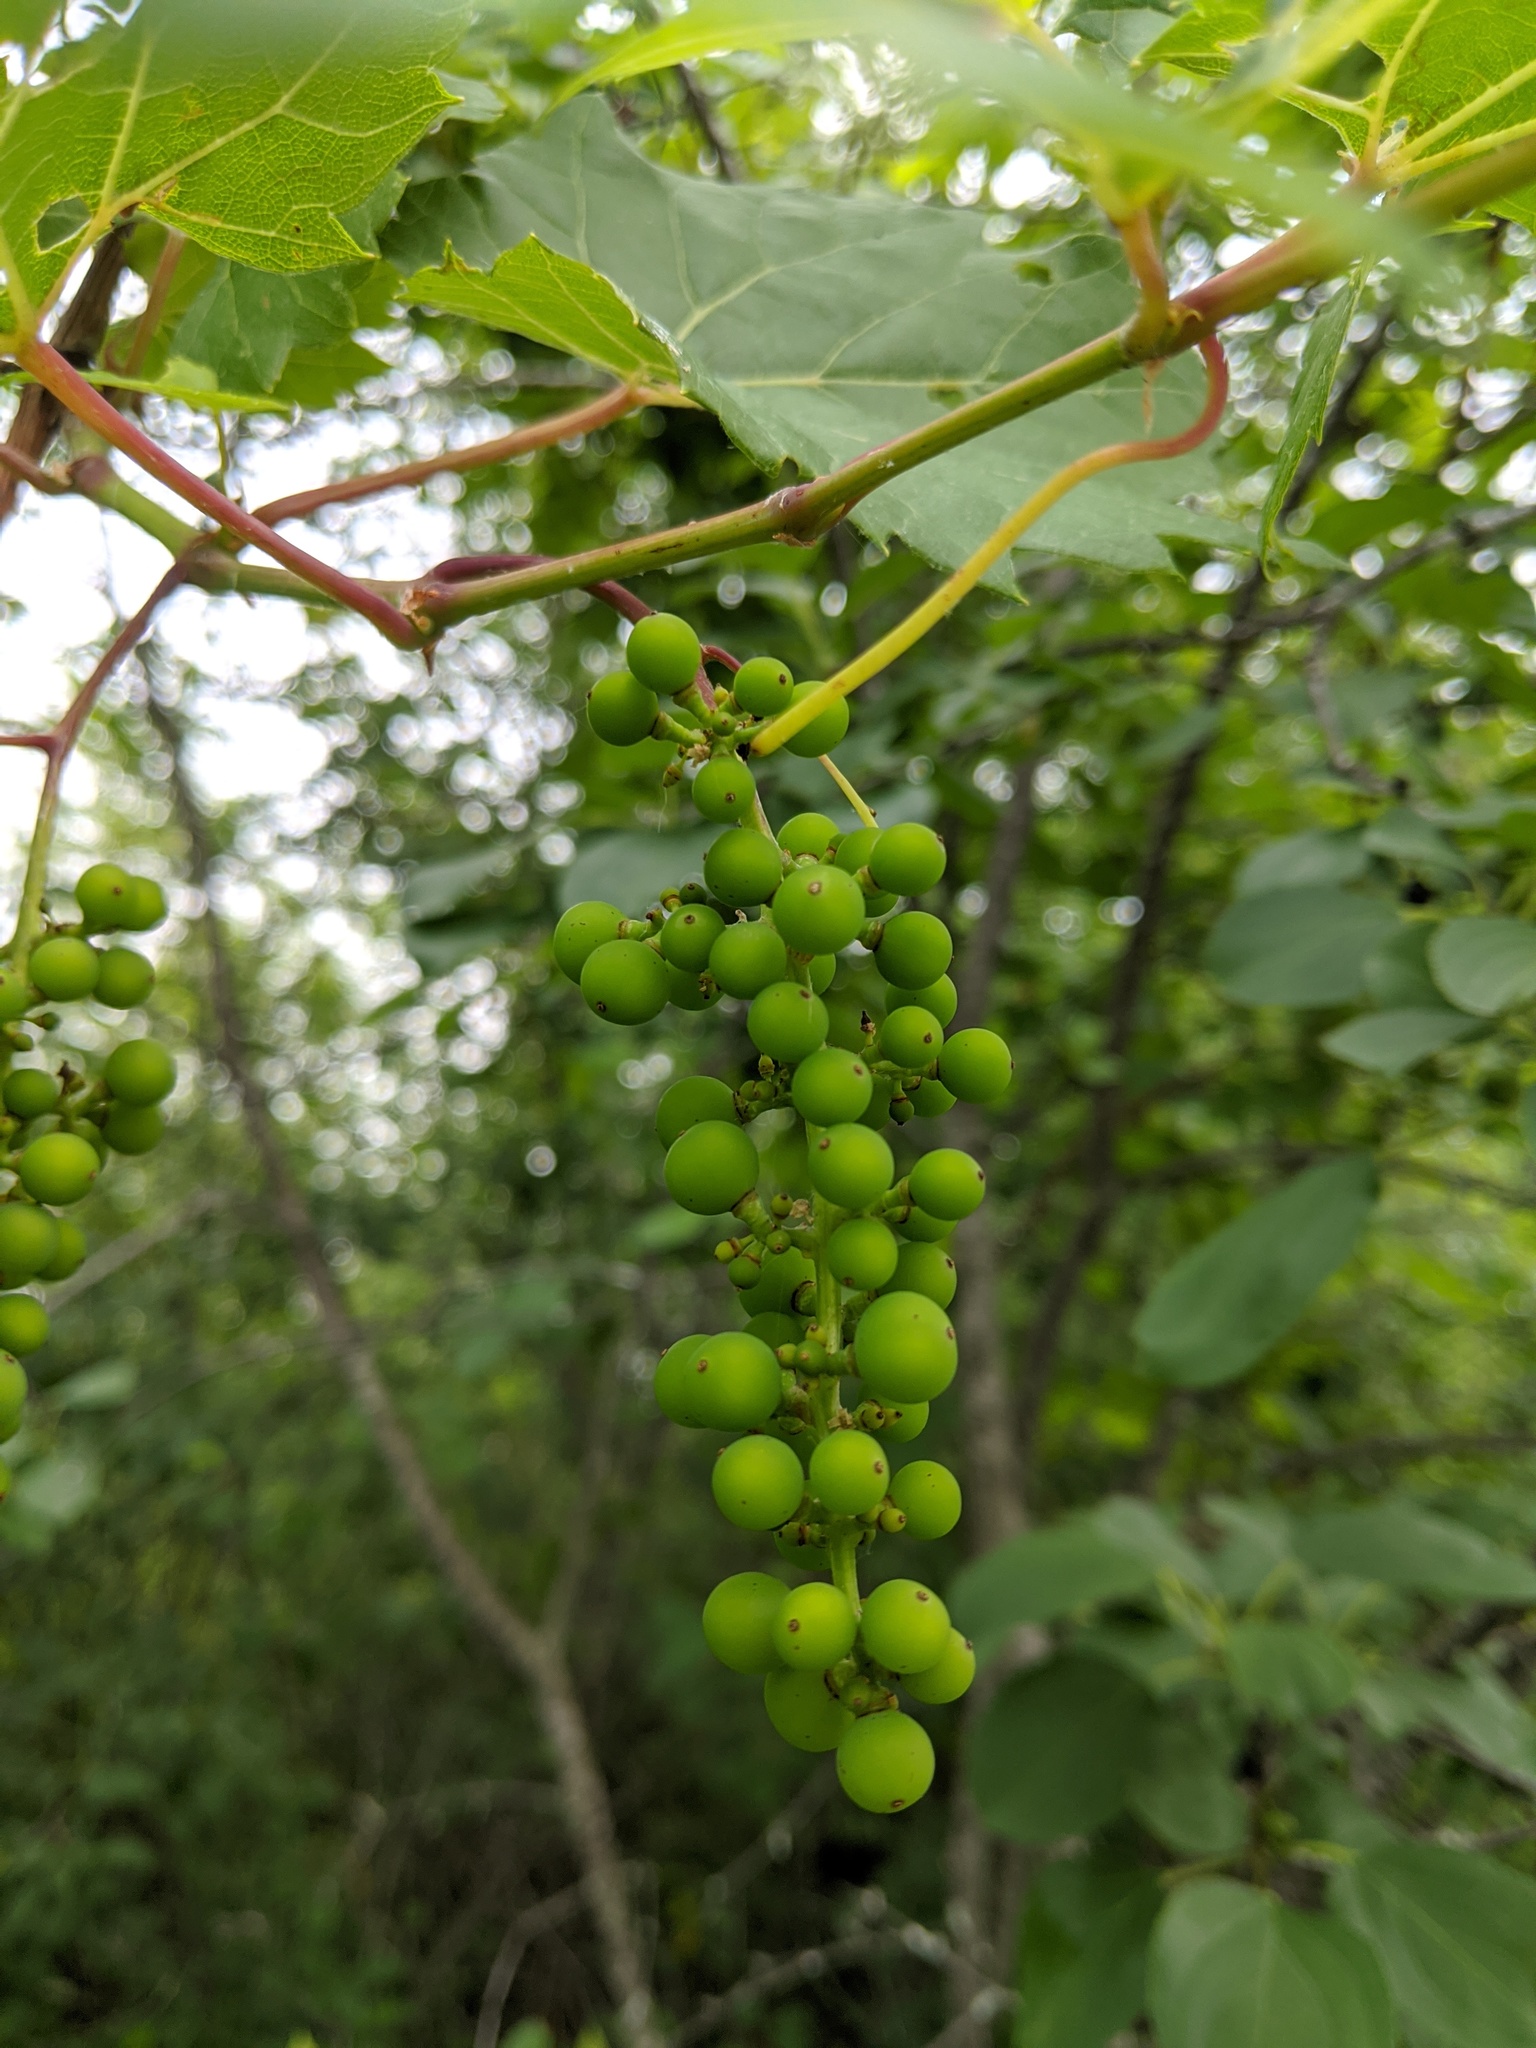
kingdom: Plantae
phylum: Tracheophyta
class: Magnoliopsida
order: Vitales
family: Vitaceae
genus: Vitis
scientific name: Vitis riparia
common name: Frost grape
